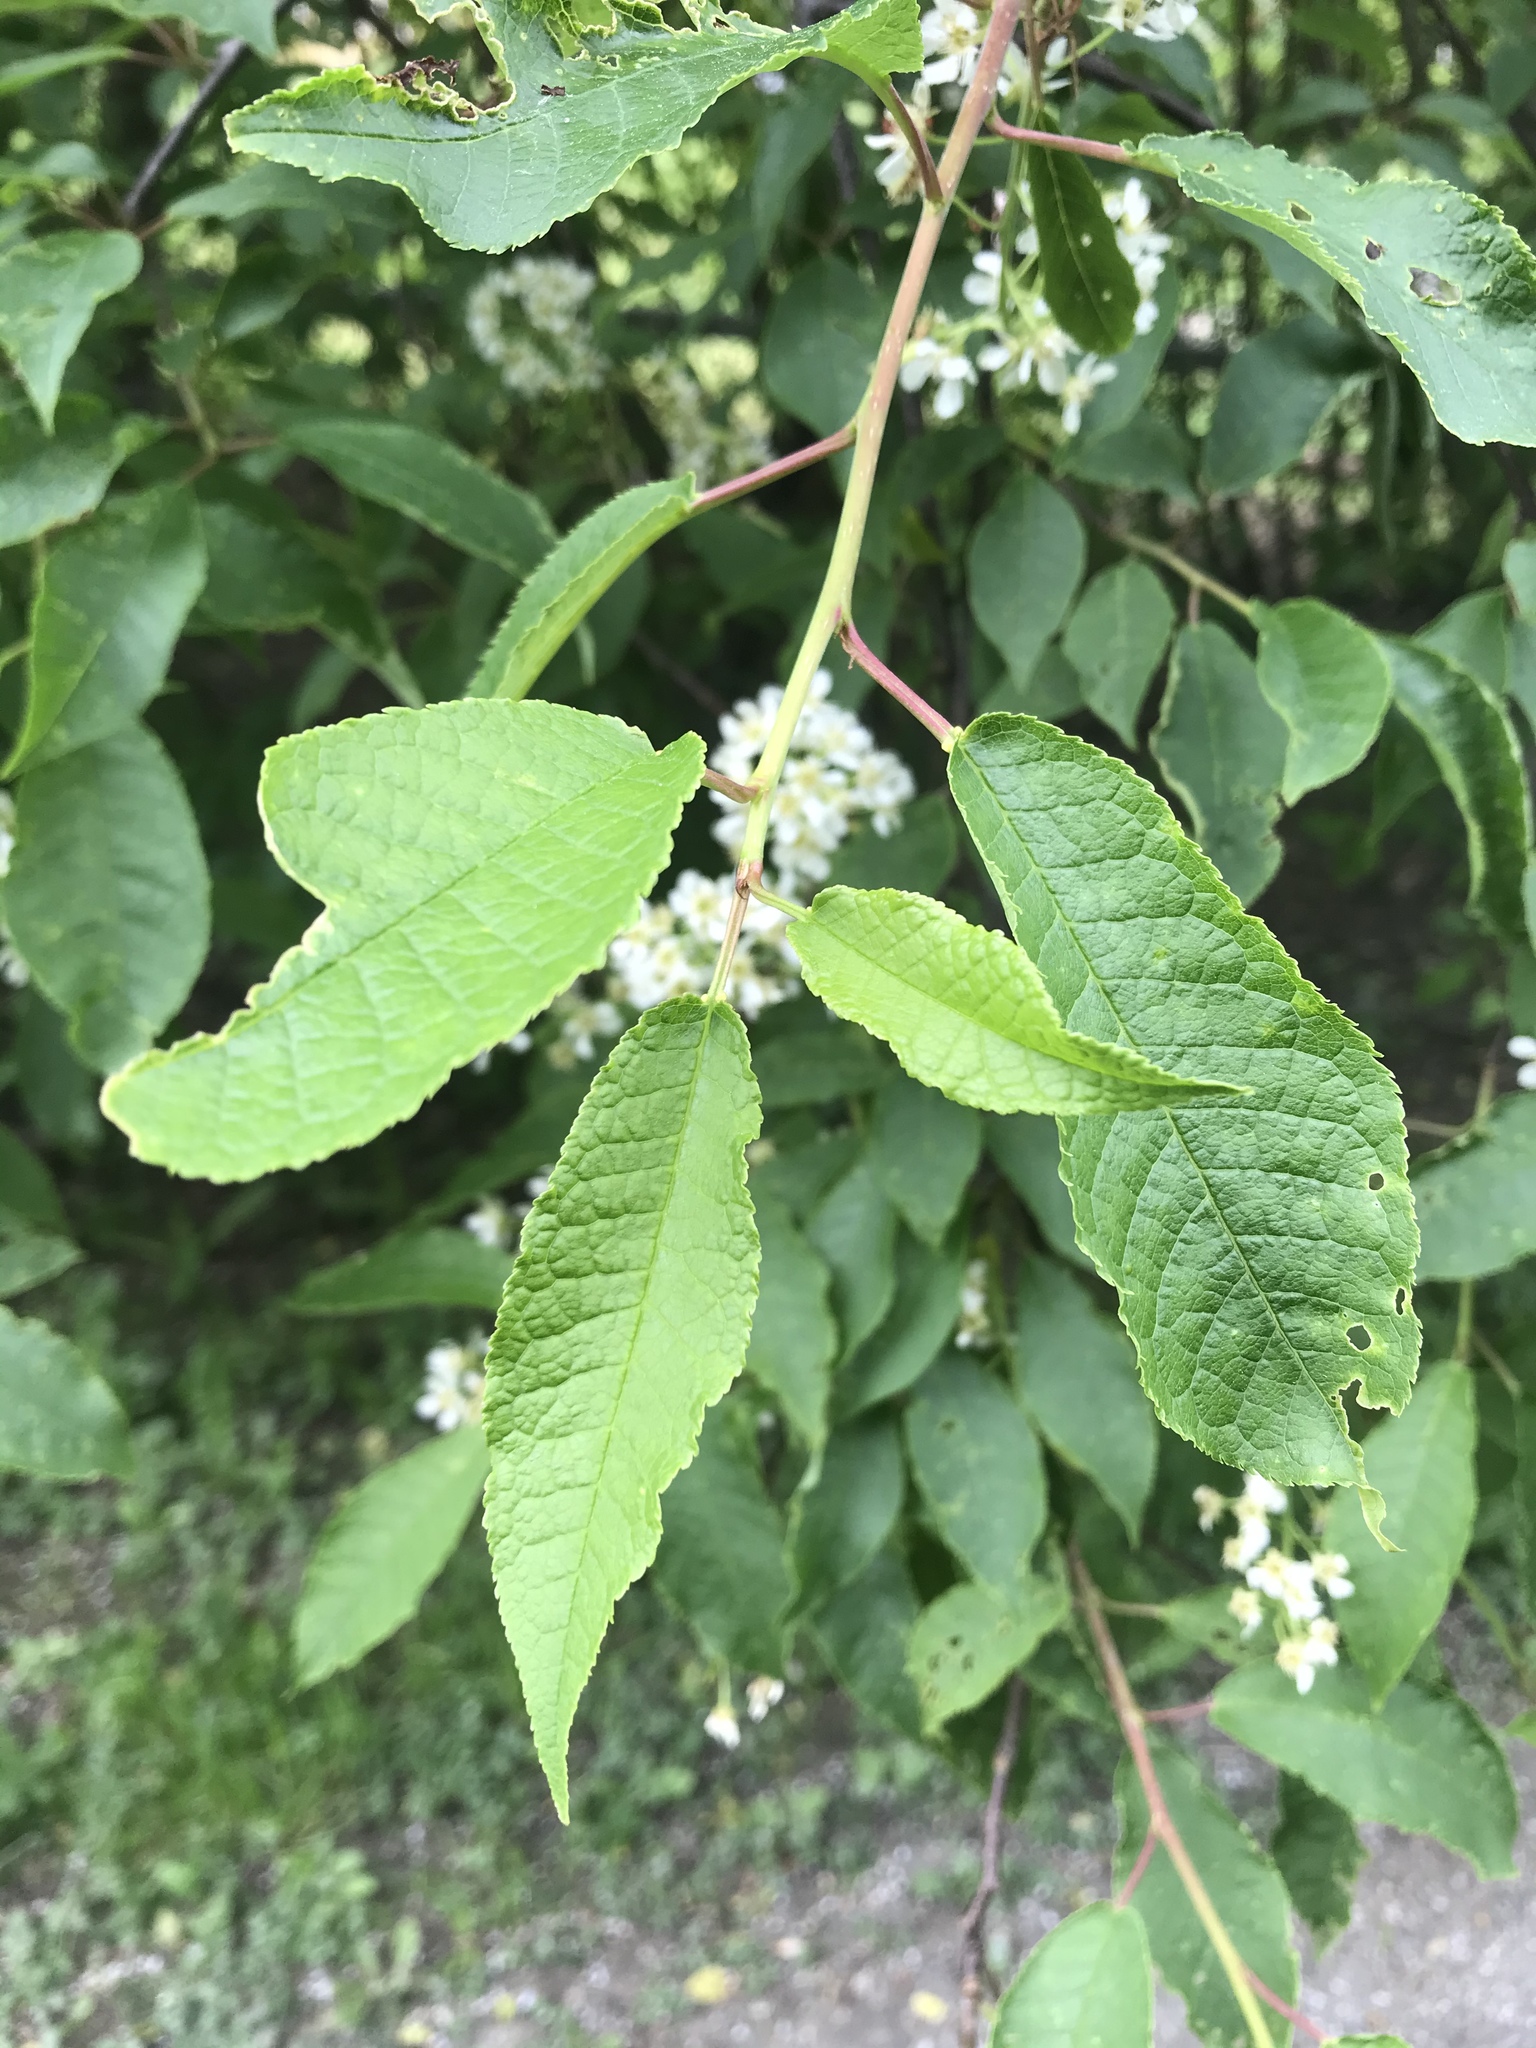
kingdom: Plantae
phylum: Tracheophyta
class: Magnoliopsida
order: Rosales
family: Rosaceae
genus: Prunus
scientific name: Prunus padus
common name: Bird cherry
